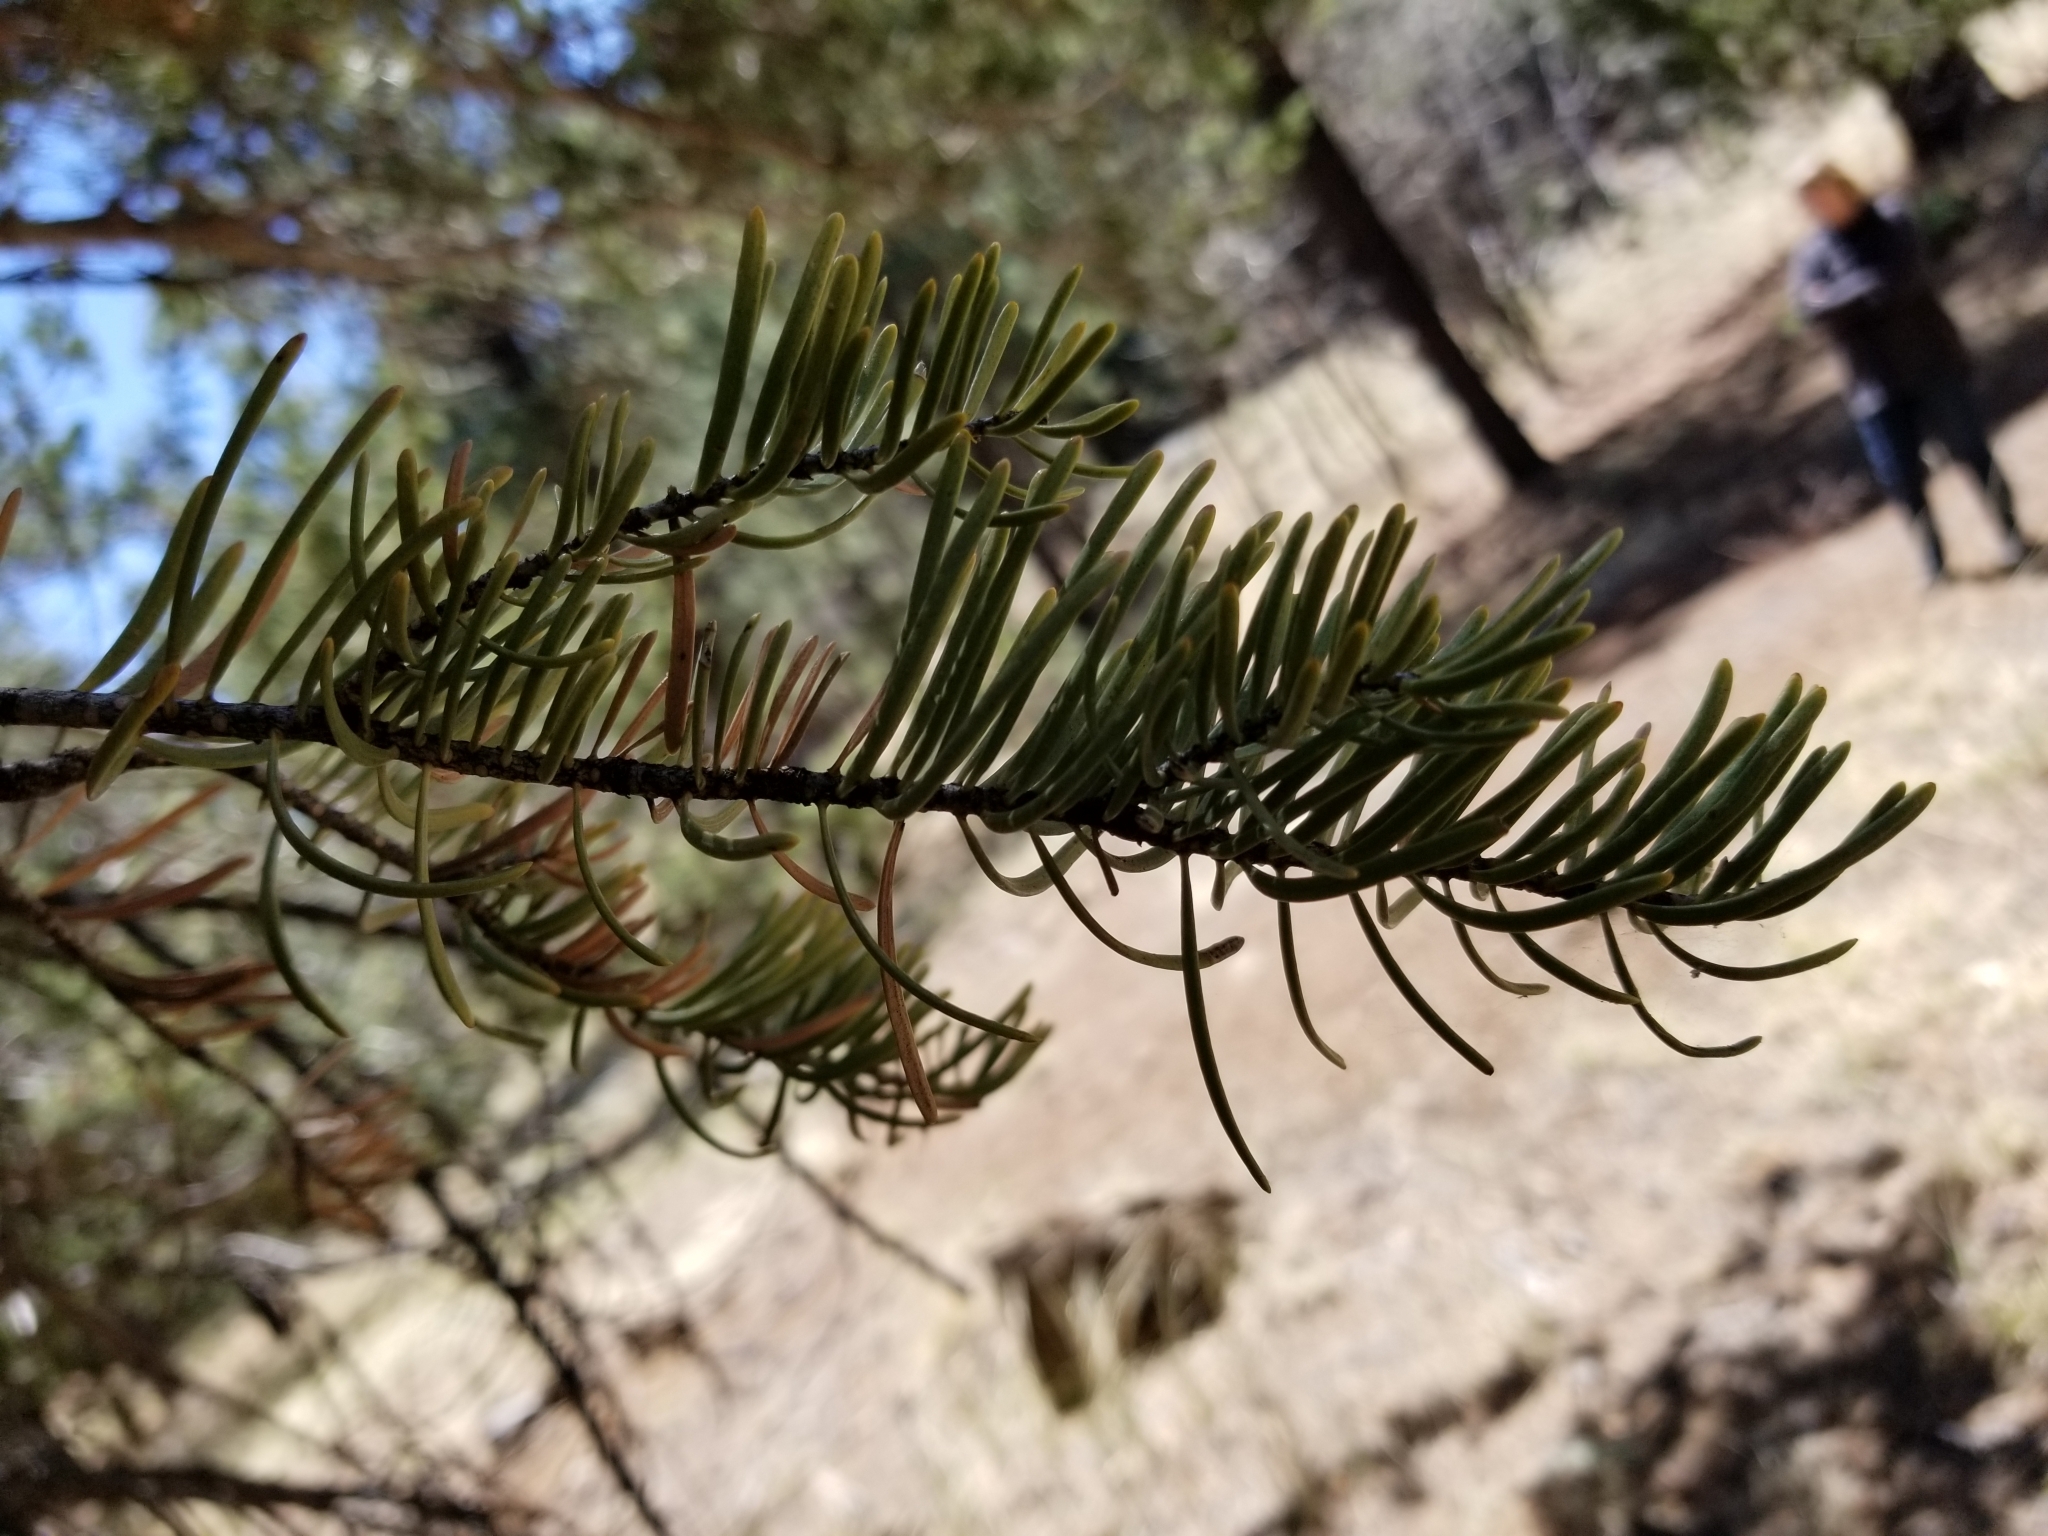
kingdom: Plantae
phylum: Tracheophyta
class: Pinopsida
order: Pinales
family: Pinaceae
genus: Abies
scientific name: Abies concolor
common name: Colorado fir
